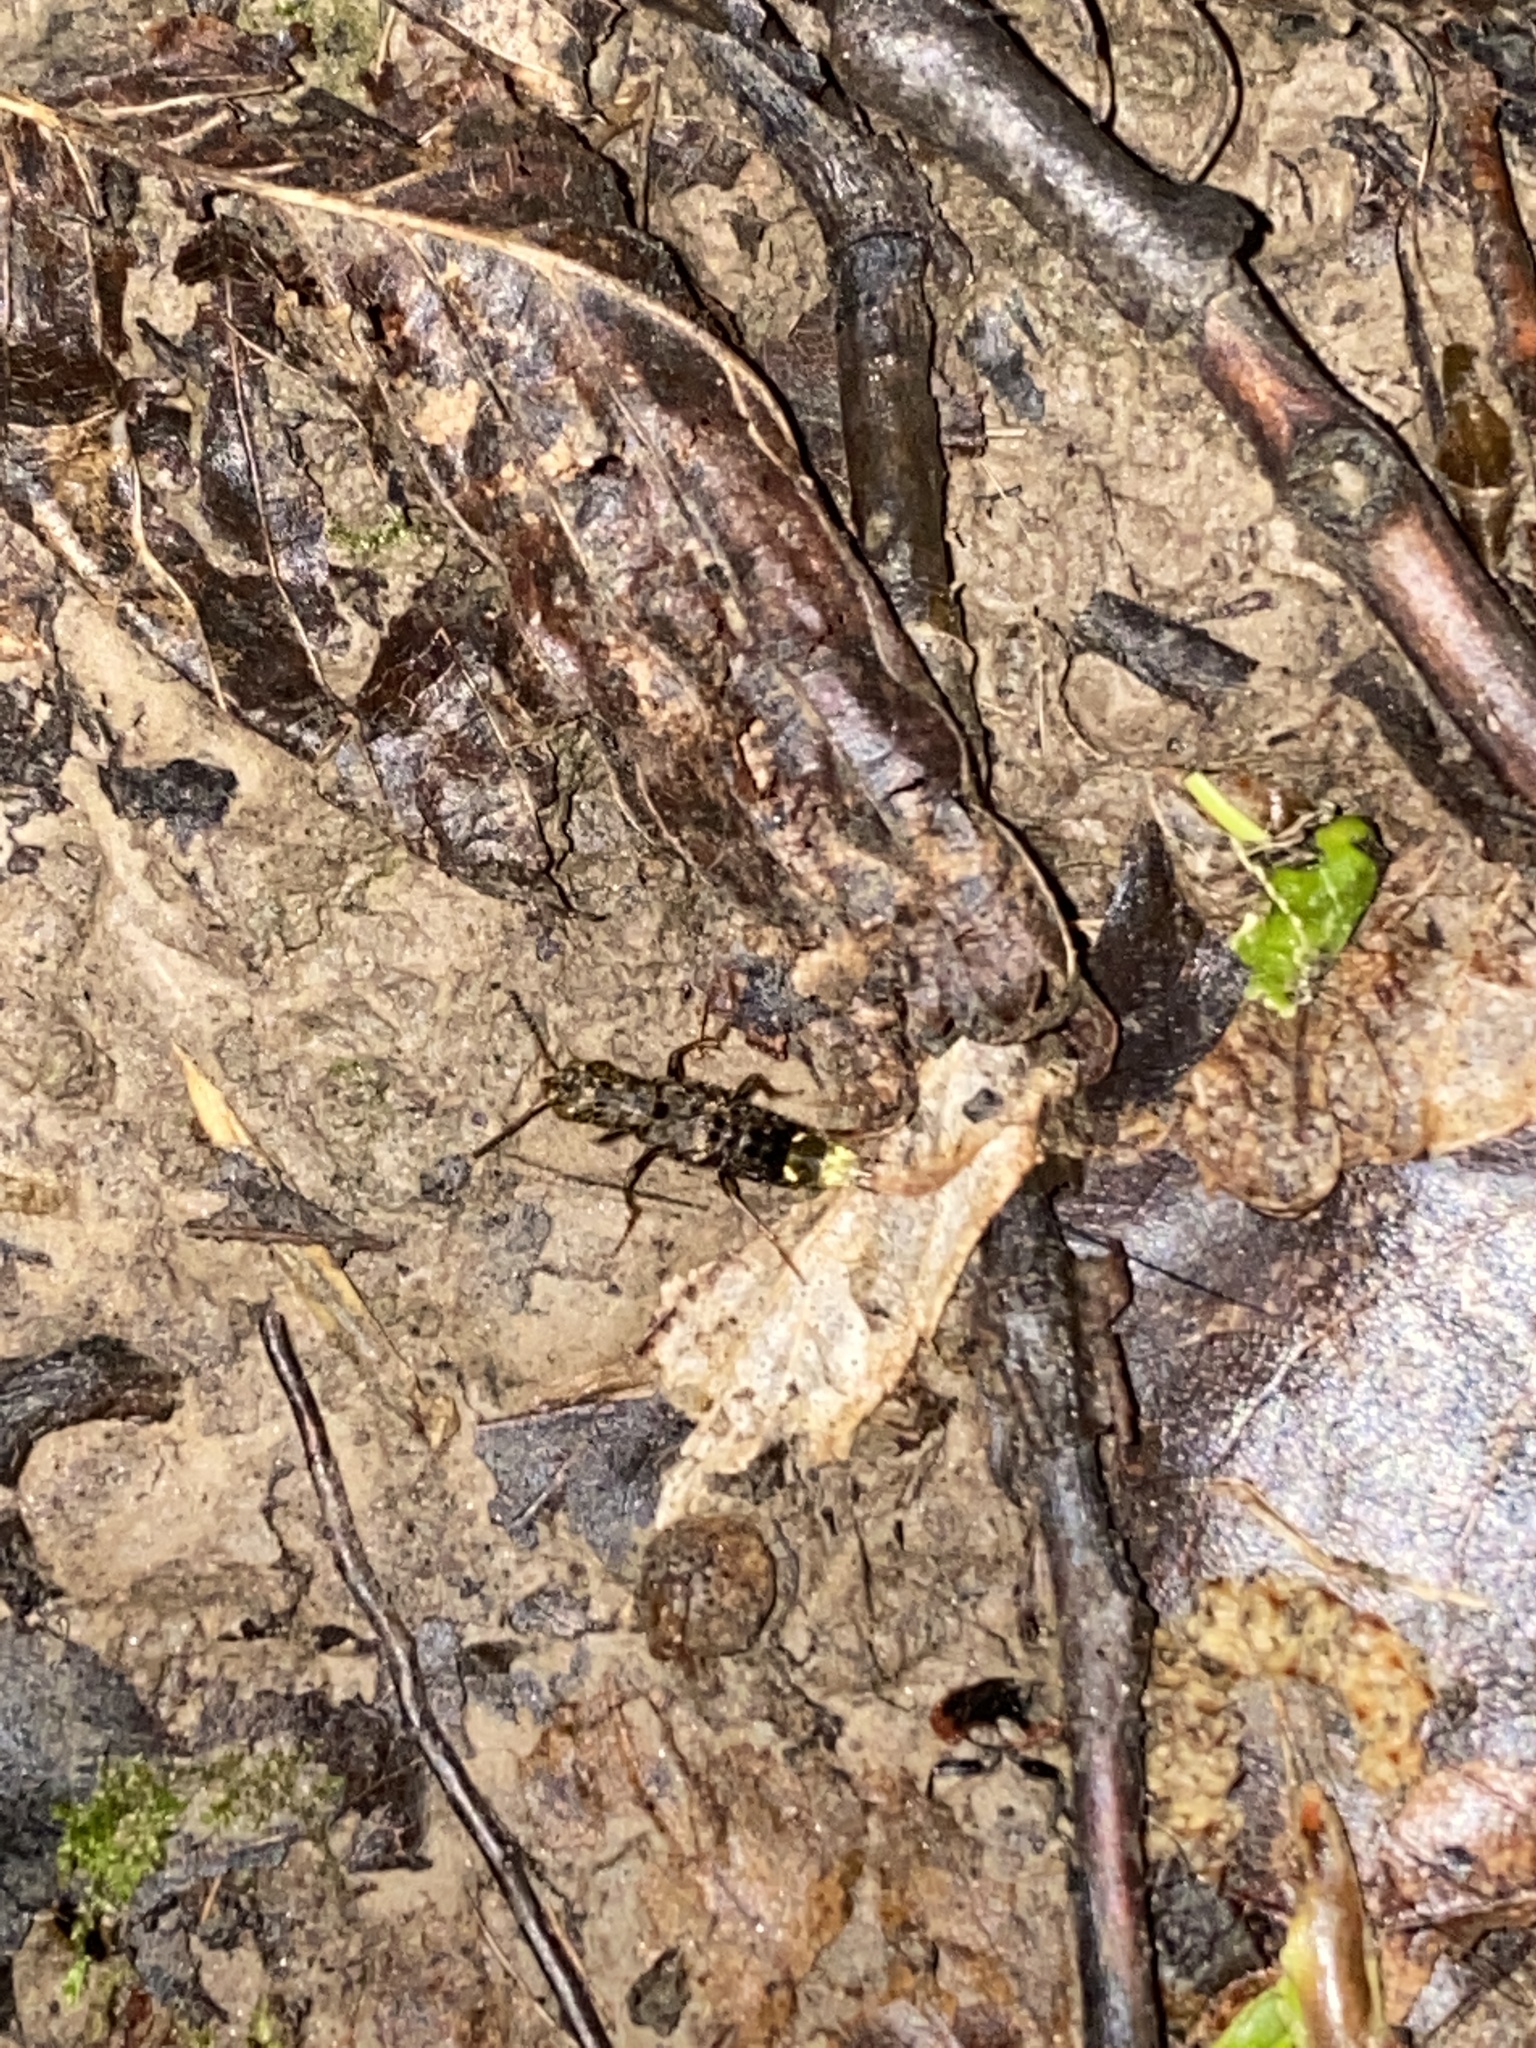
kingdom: Animalia
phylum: Arthropoda
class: Insecta
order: Coleoptera
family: Staphylinidae
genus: Ontholestes
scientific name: Ontholestes cingulatus
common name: Gold-and-brown rove beetle
